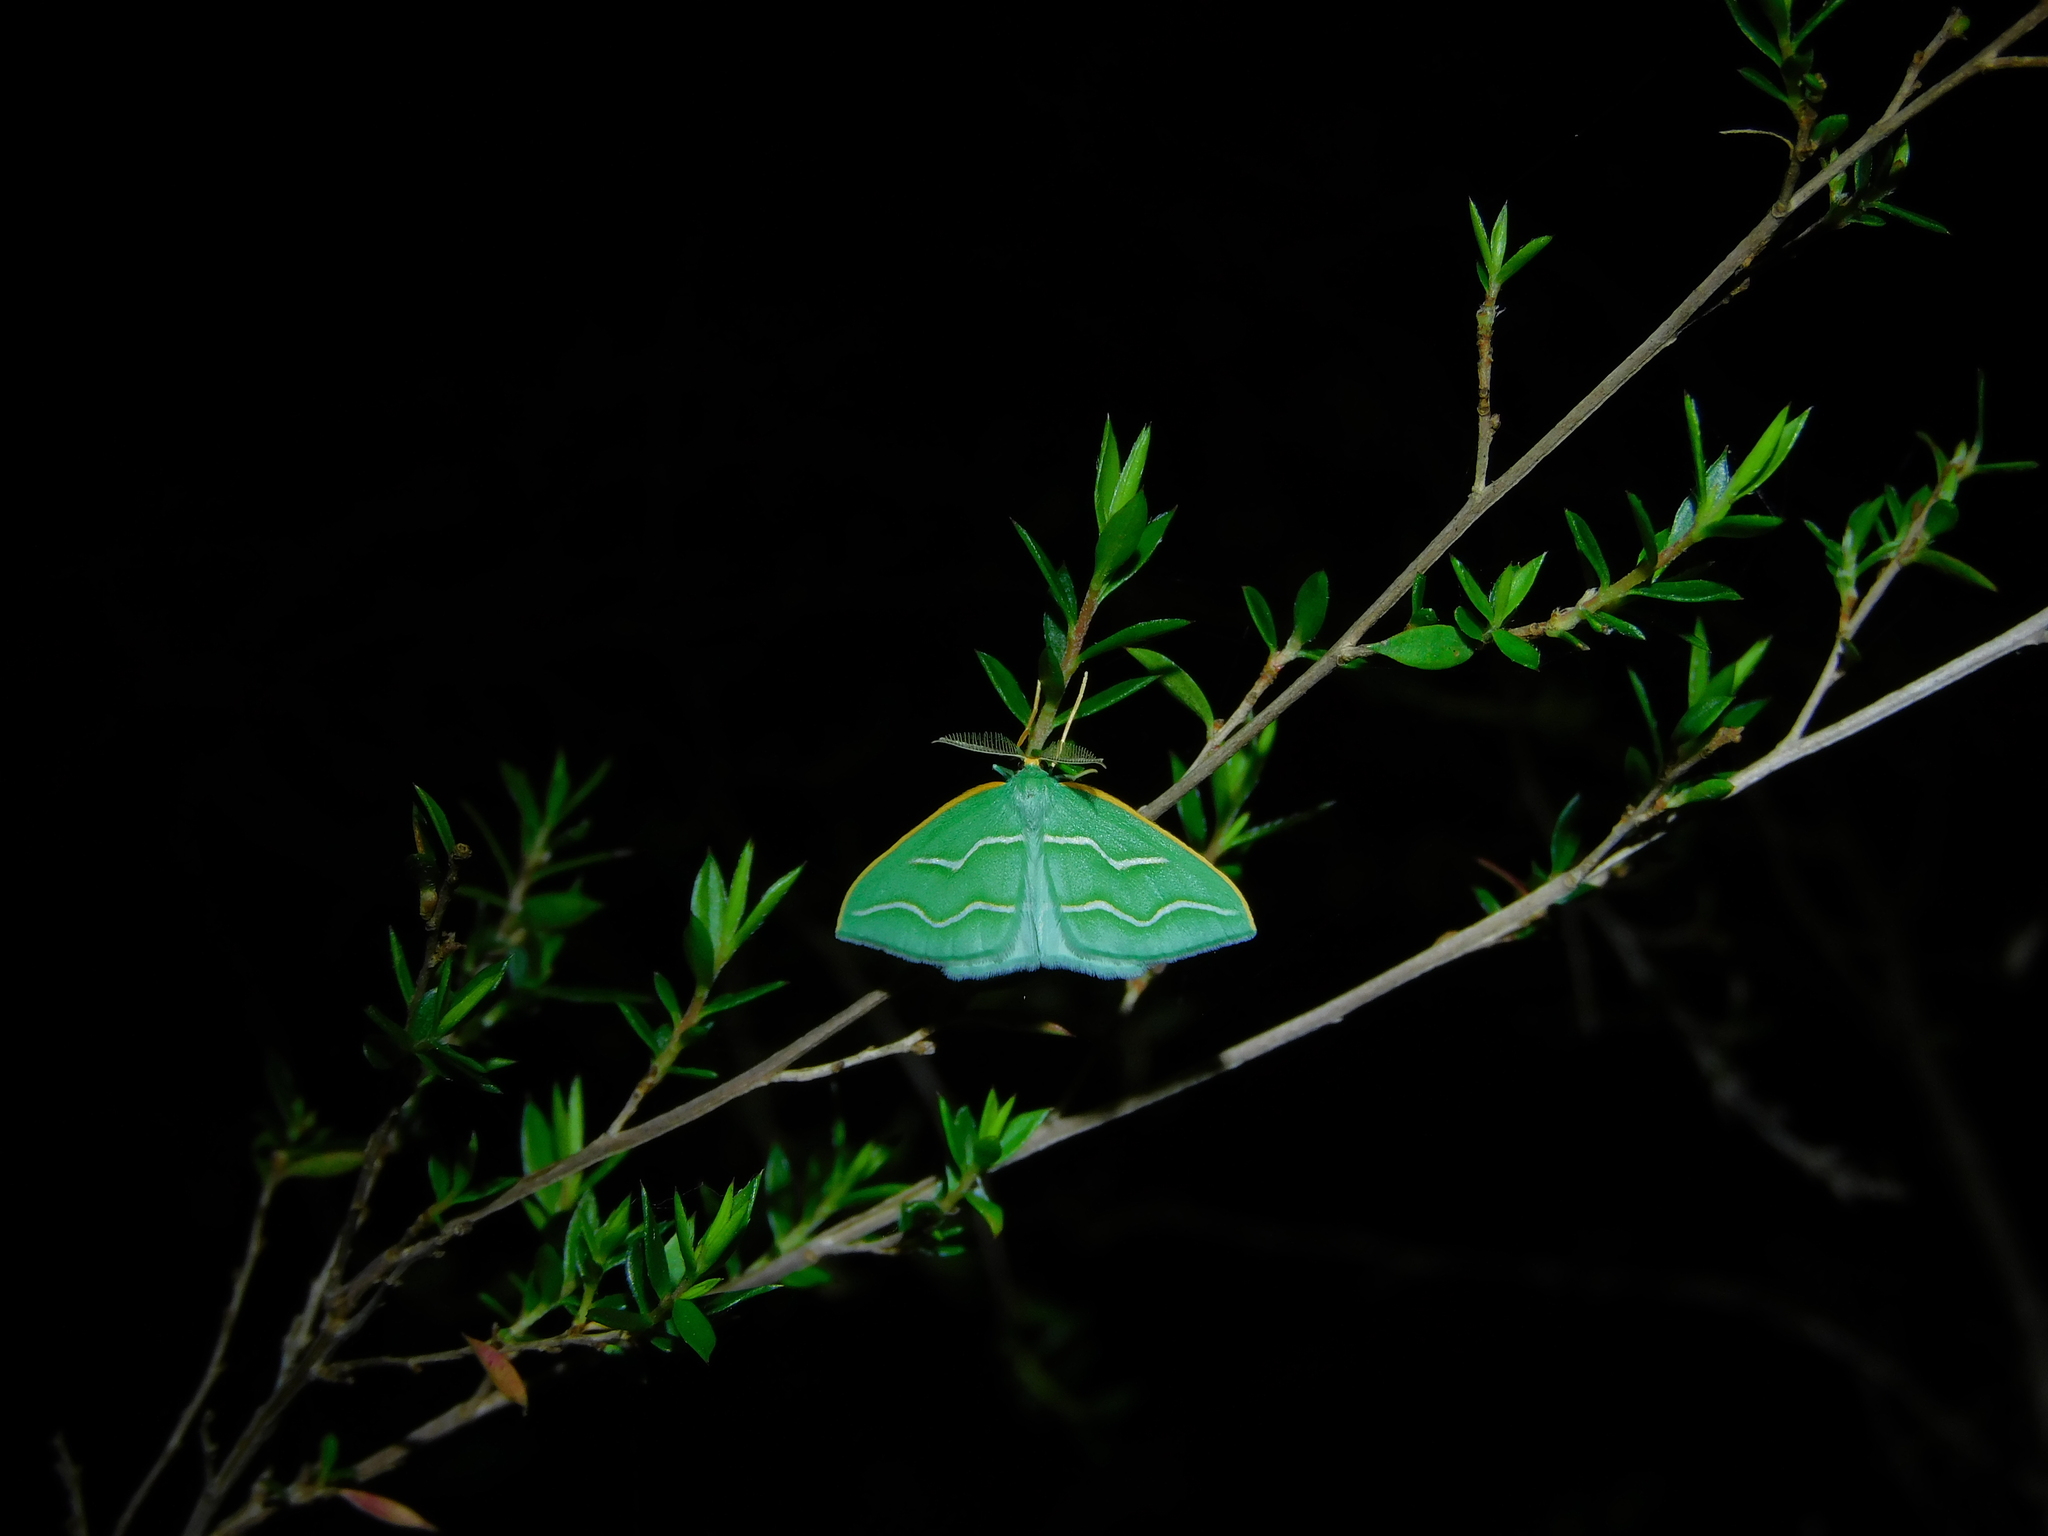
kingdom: Animalia
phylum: Arthropoda
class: Insecta
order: Lepidoptera
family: Geometridae
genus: Euloxia
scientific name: Euloxia meandraria
